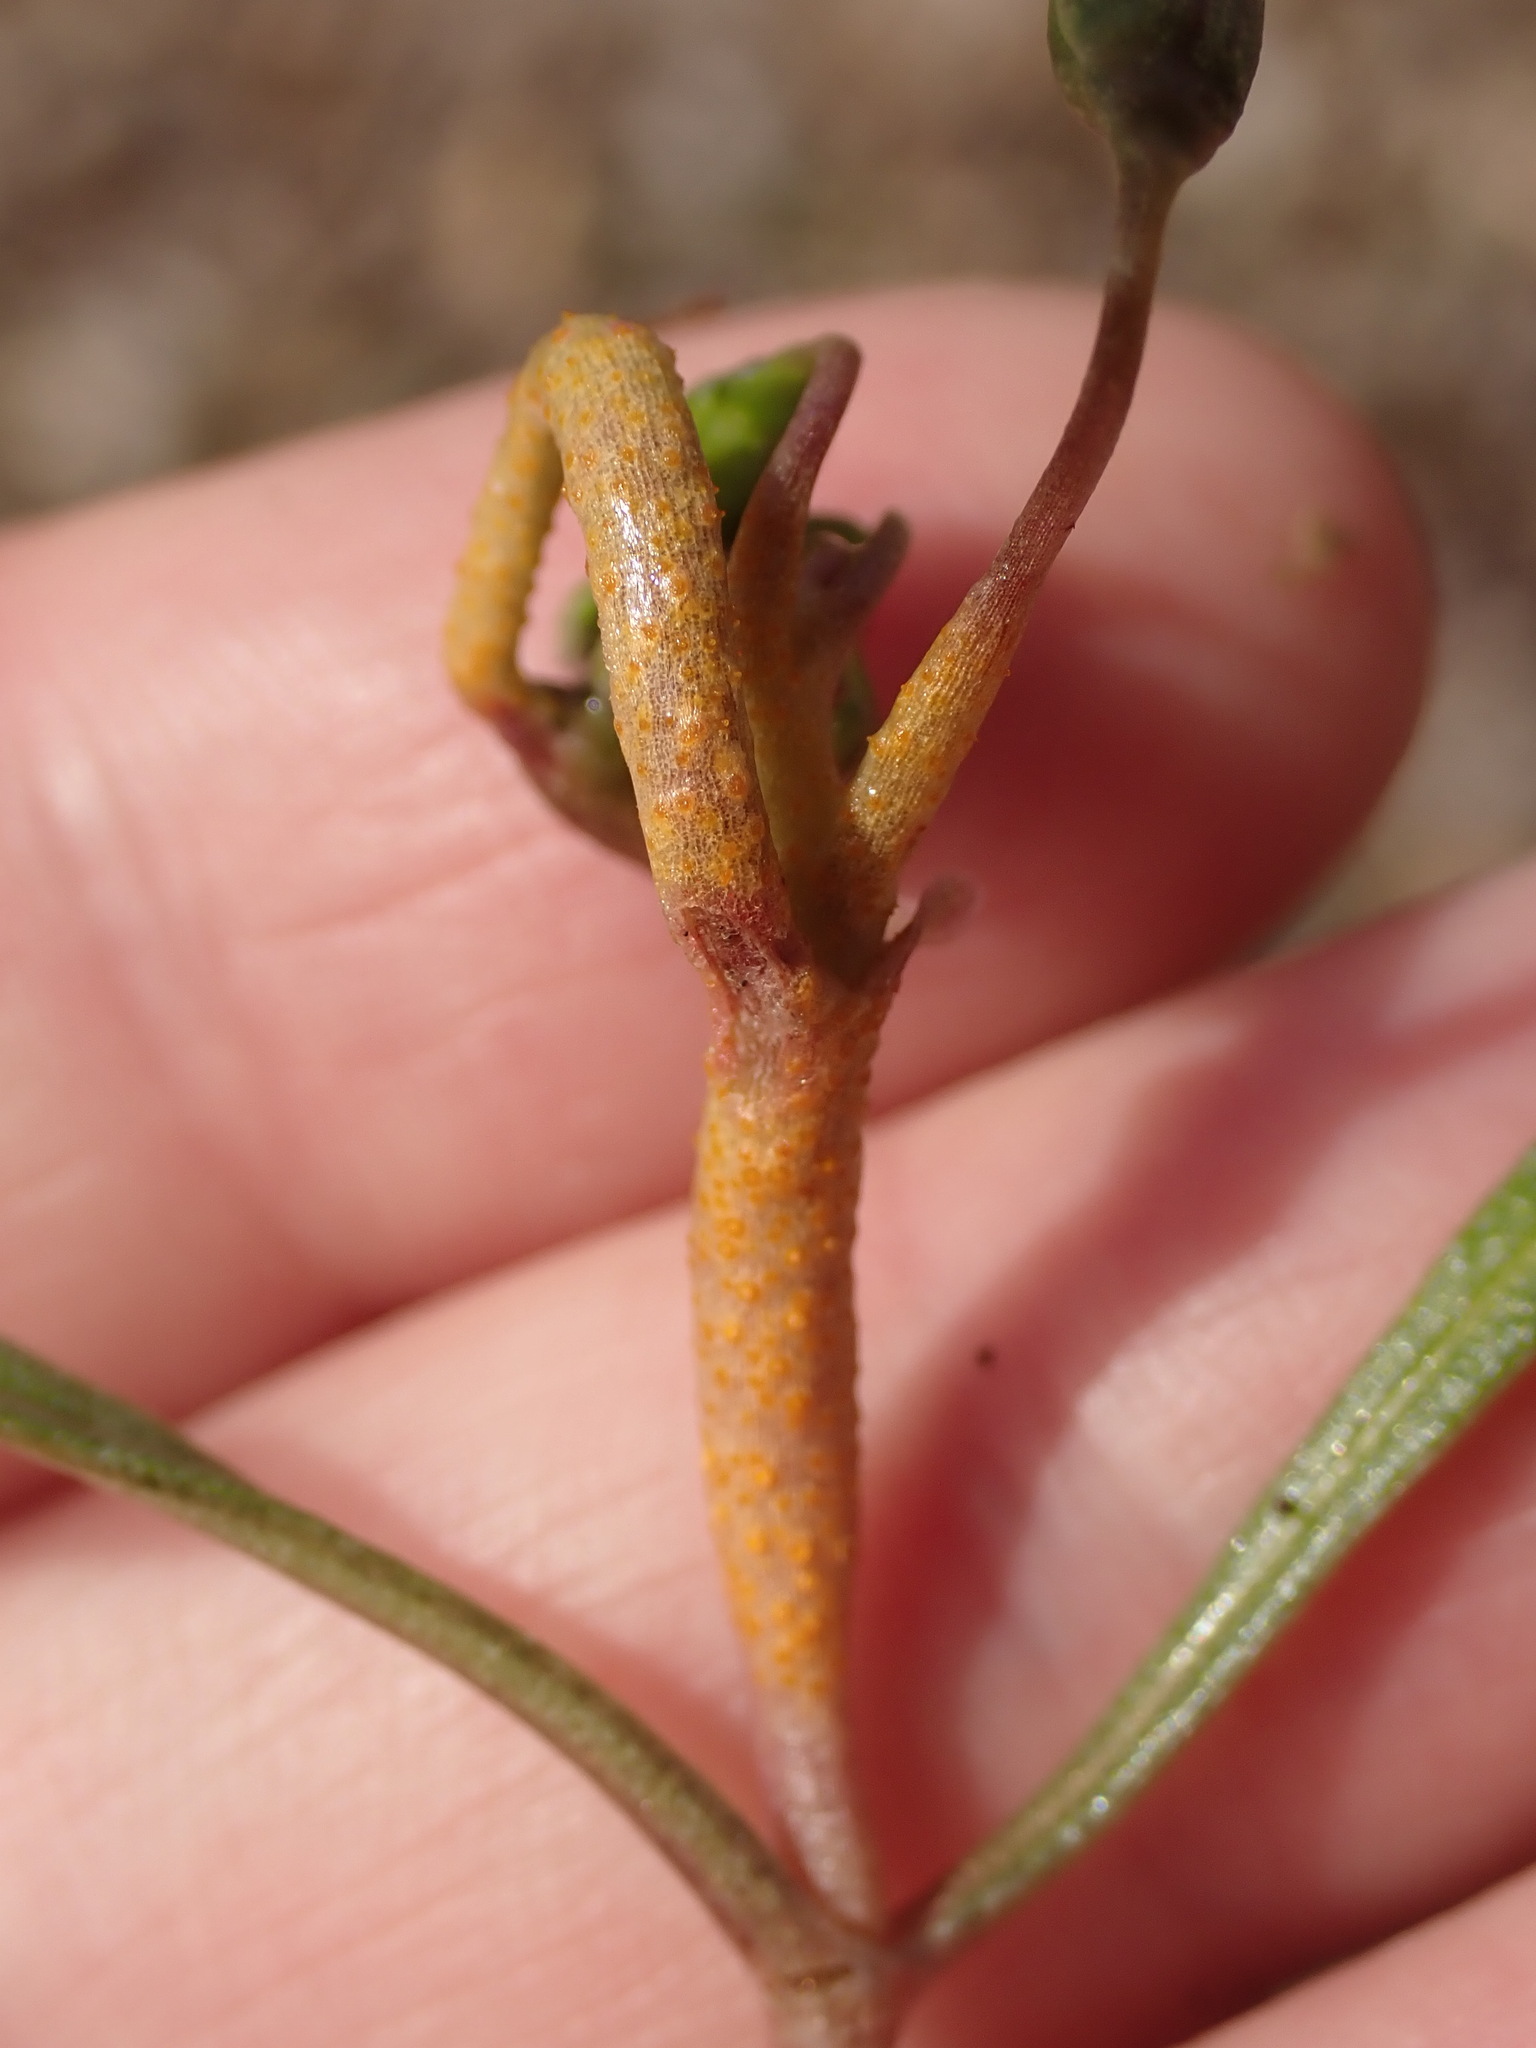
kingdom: Fungi
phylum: Basidiomycota
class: Pucciniomycetes
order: Pucciniales
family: Pucciniaceae
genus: Puccinia
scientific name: Puccinia mariae-wilsoniae
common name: Spring beauty rust
